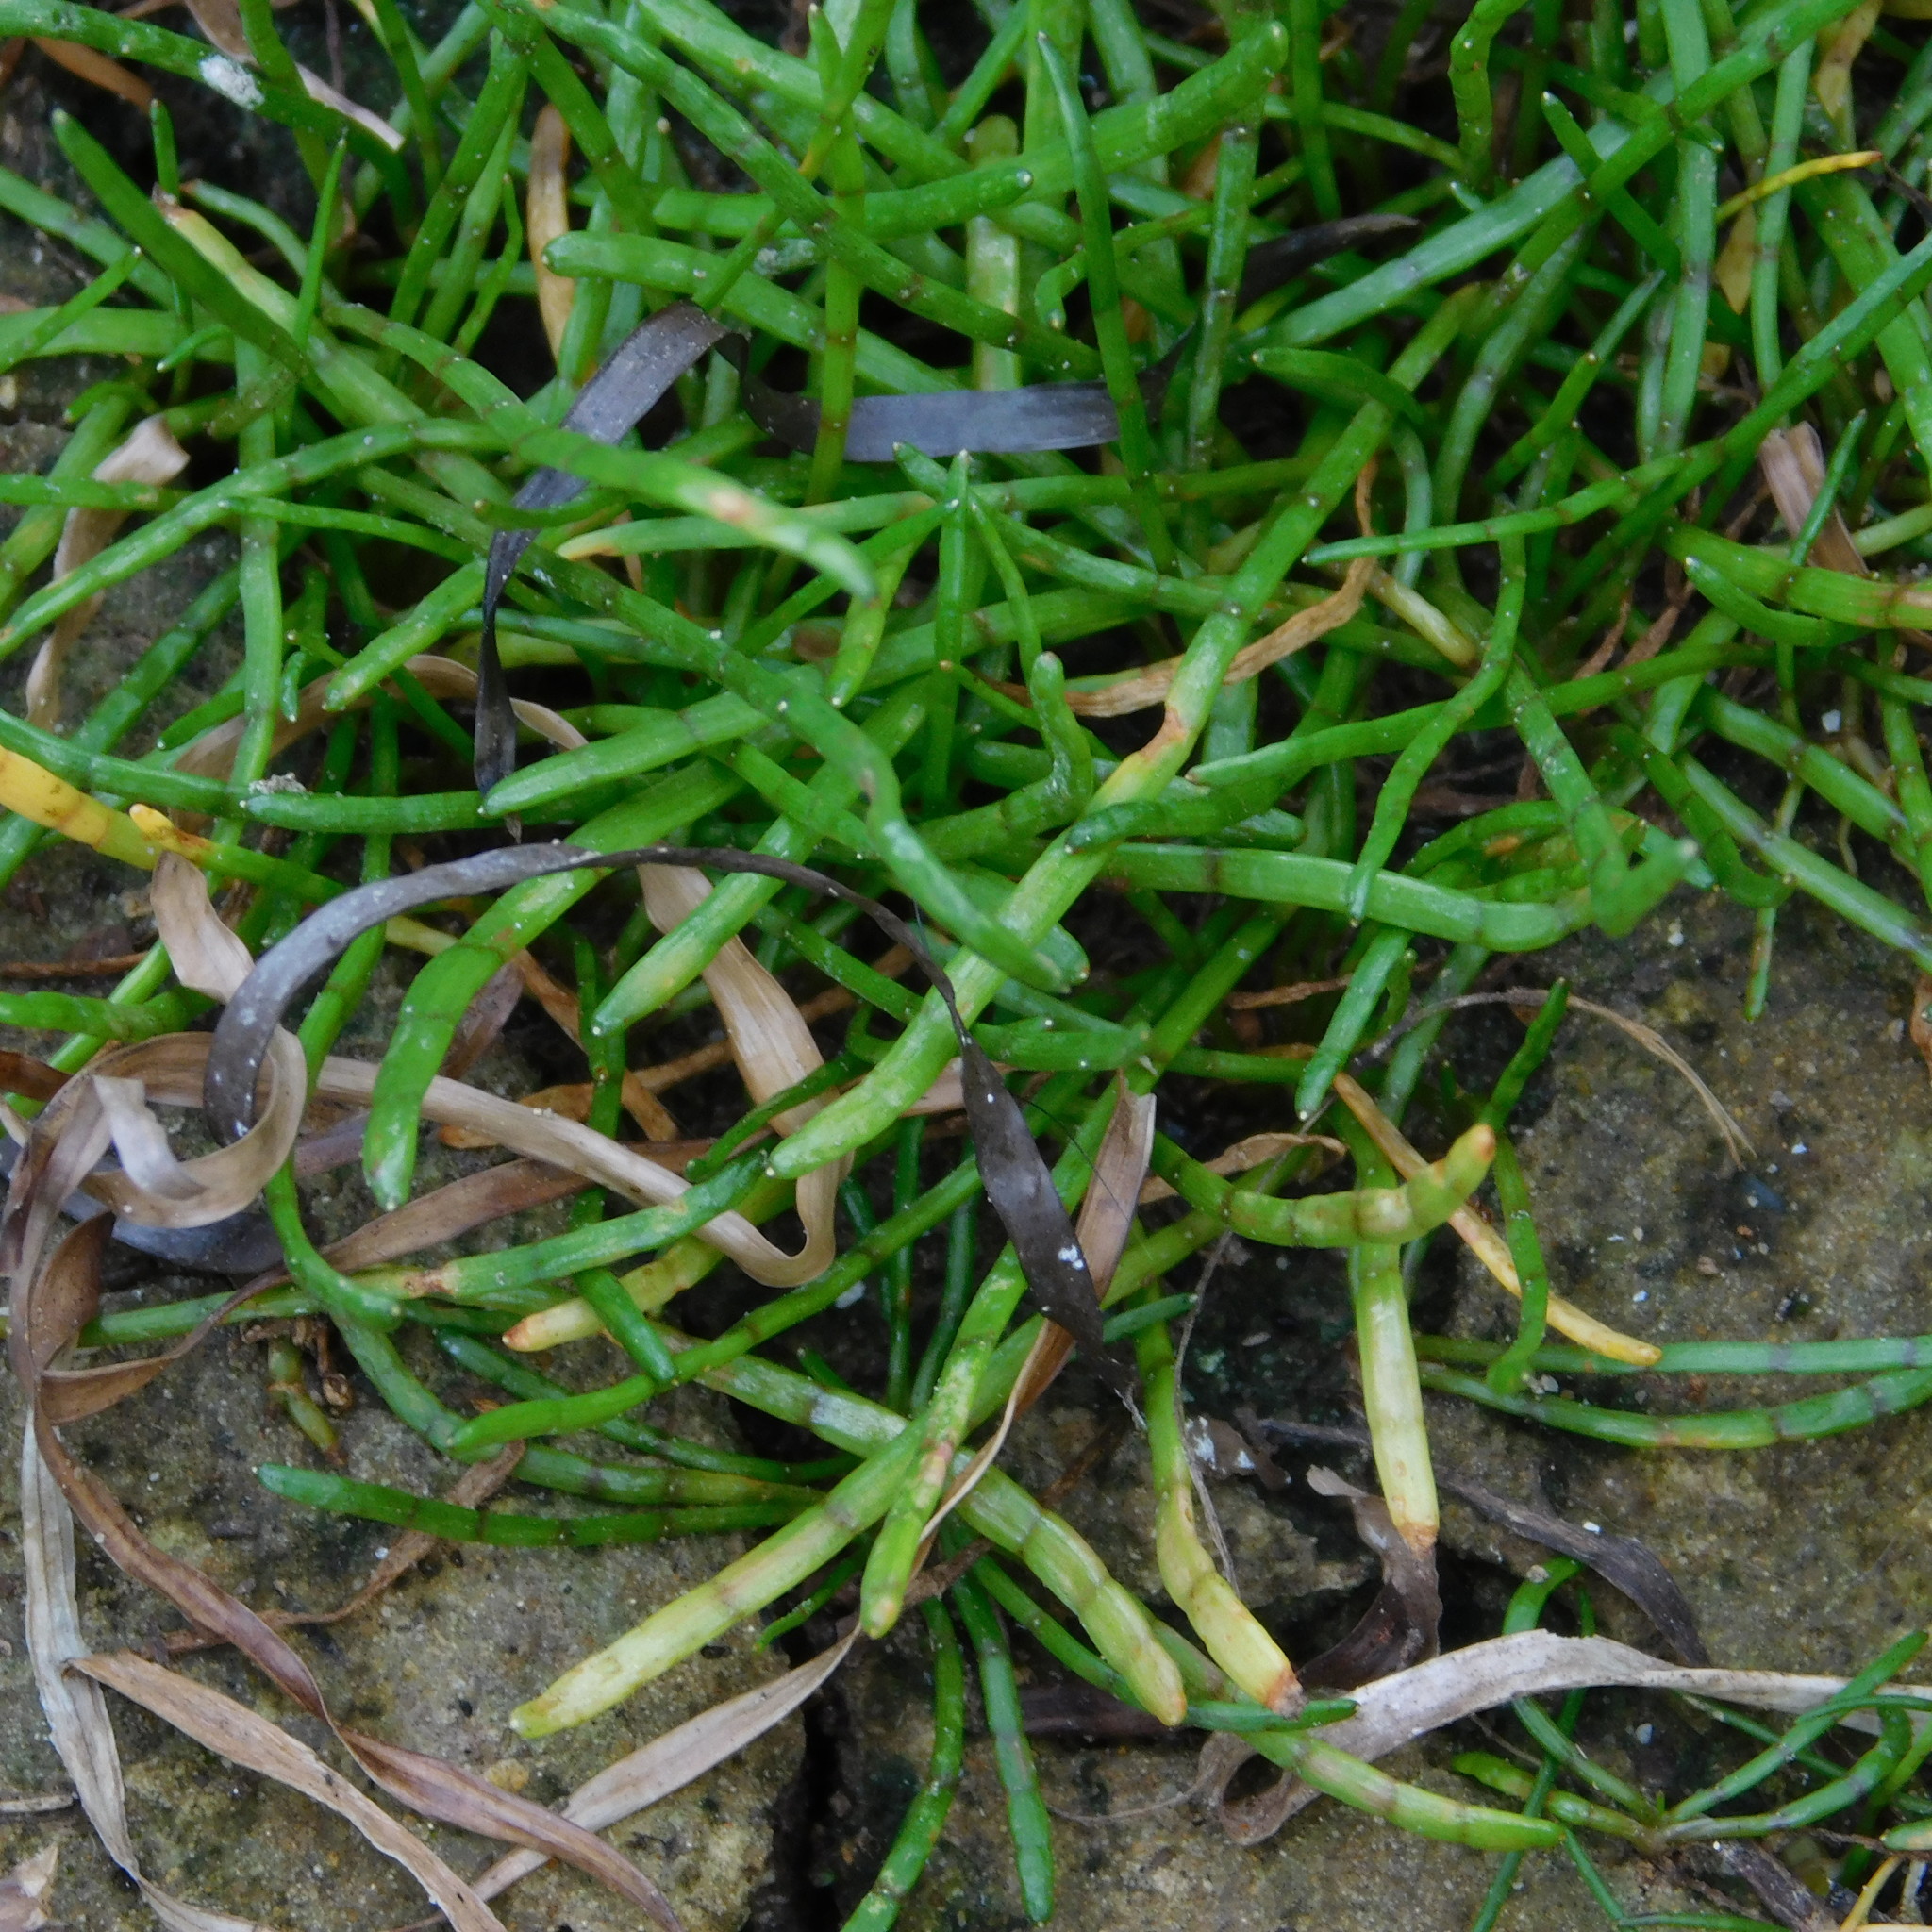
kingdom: Plantae
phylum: Tracheophyta
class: Magnoliopsida
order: Apiales
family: Apiaceae
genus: Lilaeopsis
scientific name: Lilaeopsis novae-zelandiae
